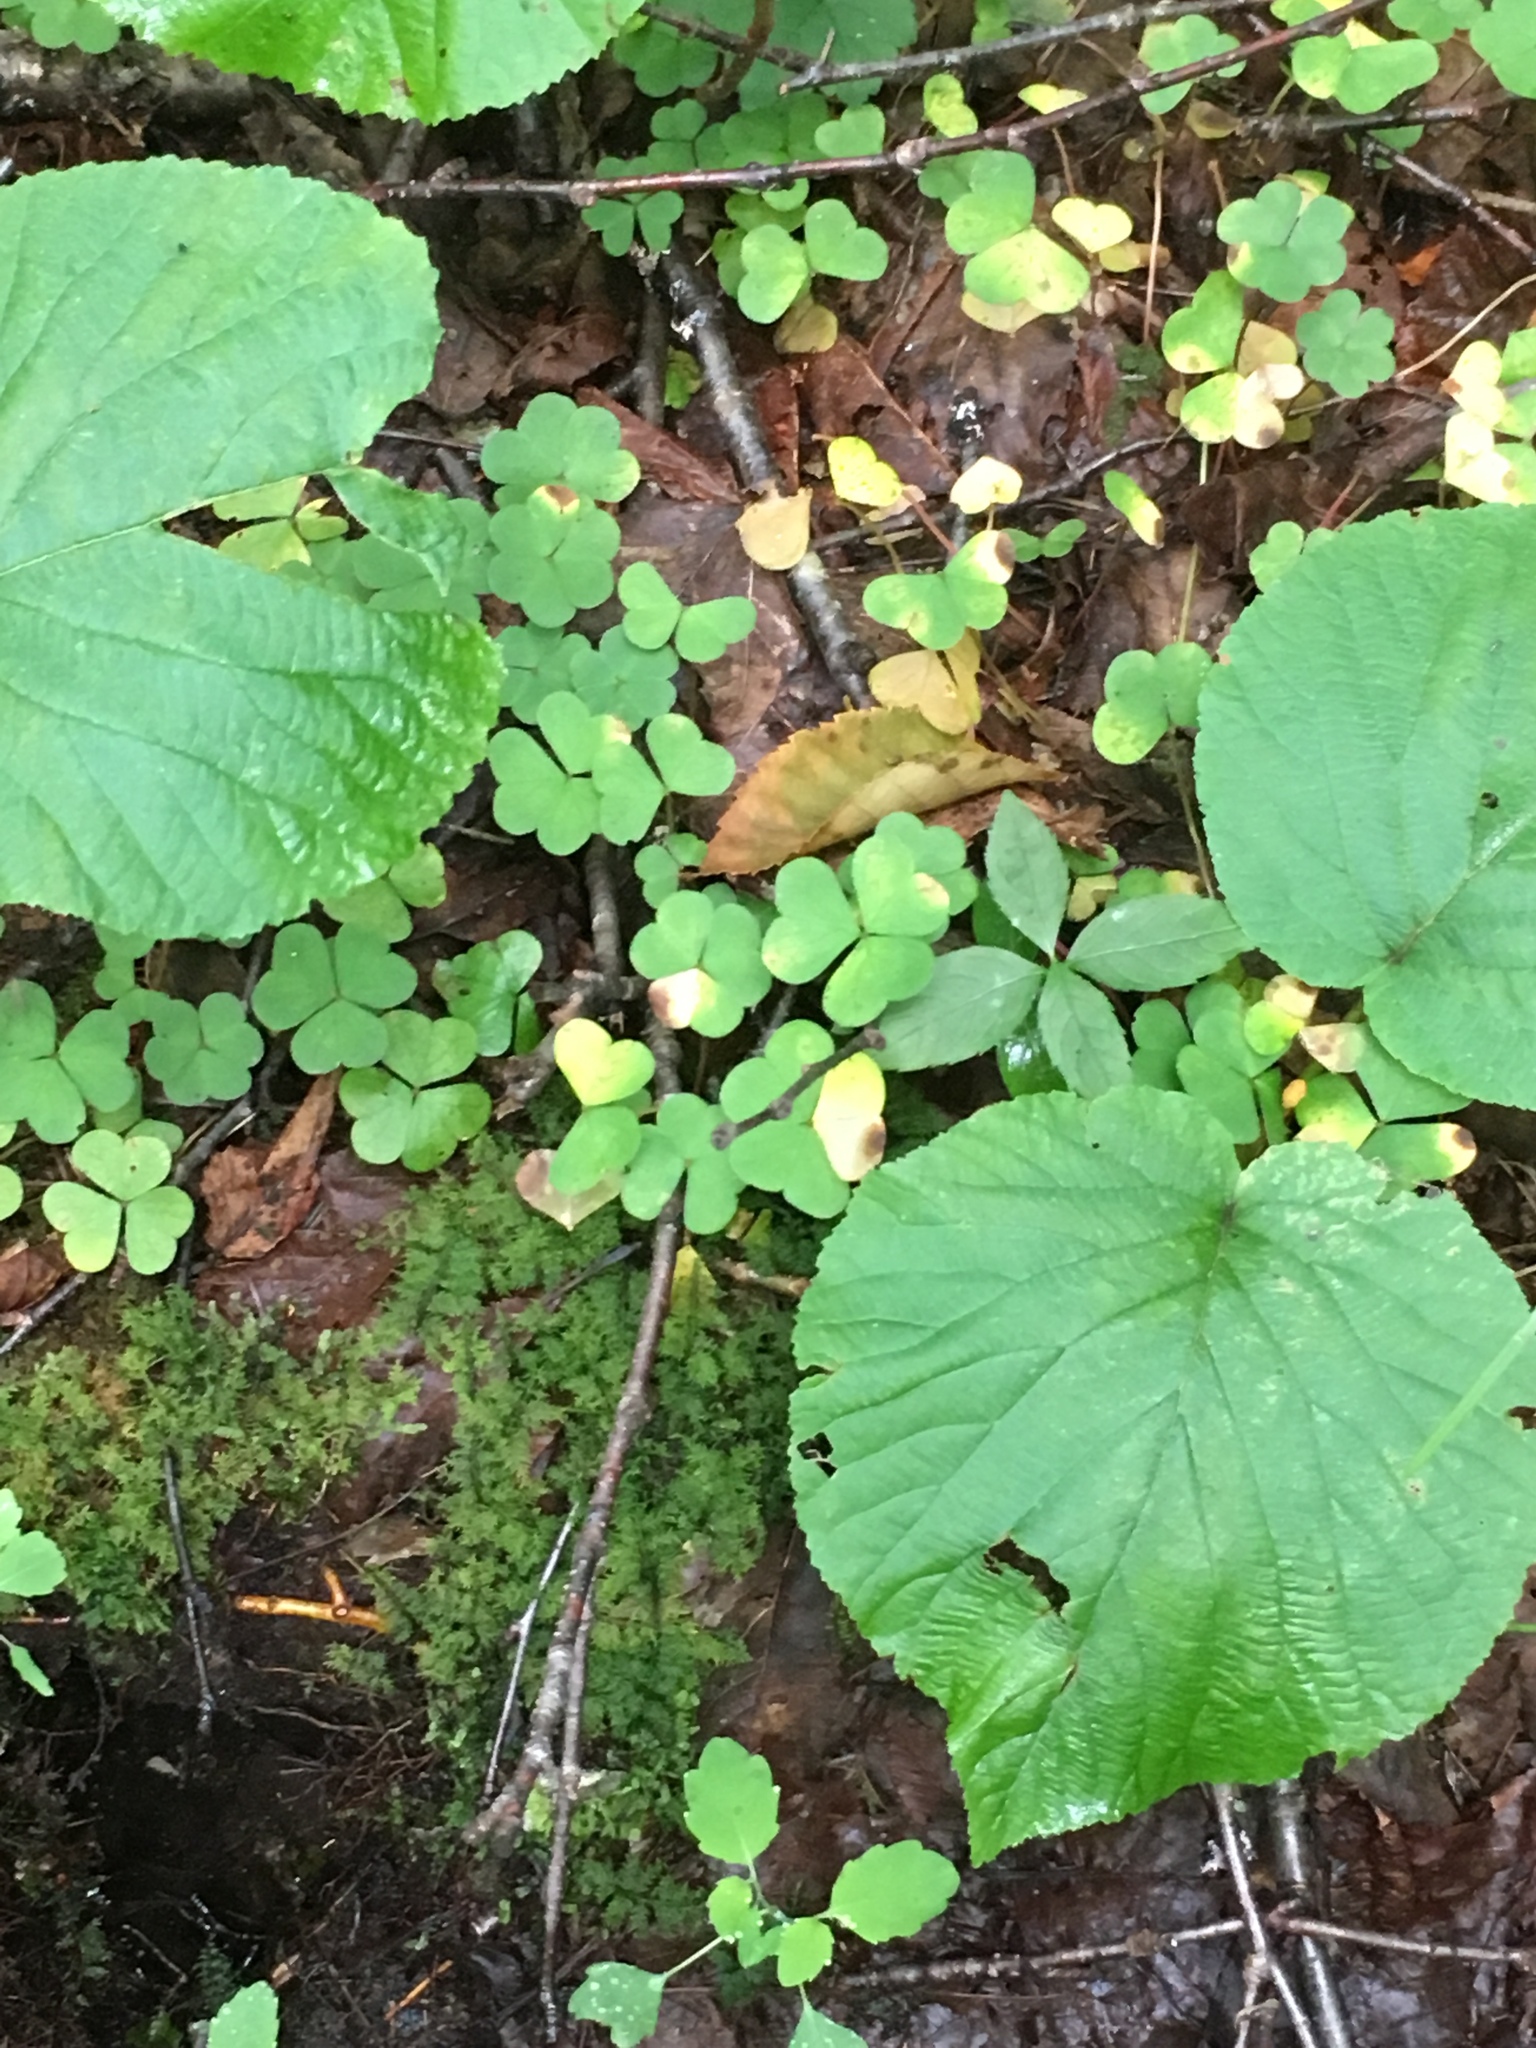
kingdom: Plantae
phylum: Tracheophyta
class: Magnoliopsida
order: Oxalidales
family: Oxalidaceae
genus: Oxalis
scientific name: Oxalis montana
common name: American wood-sorrel
